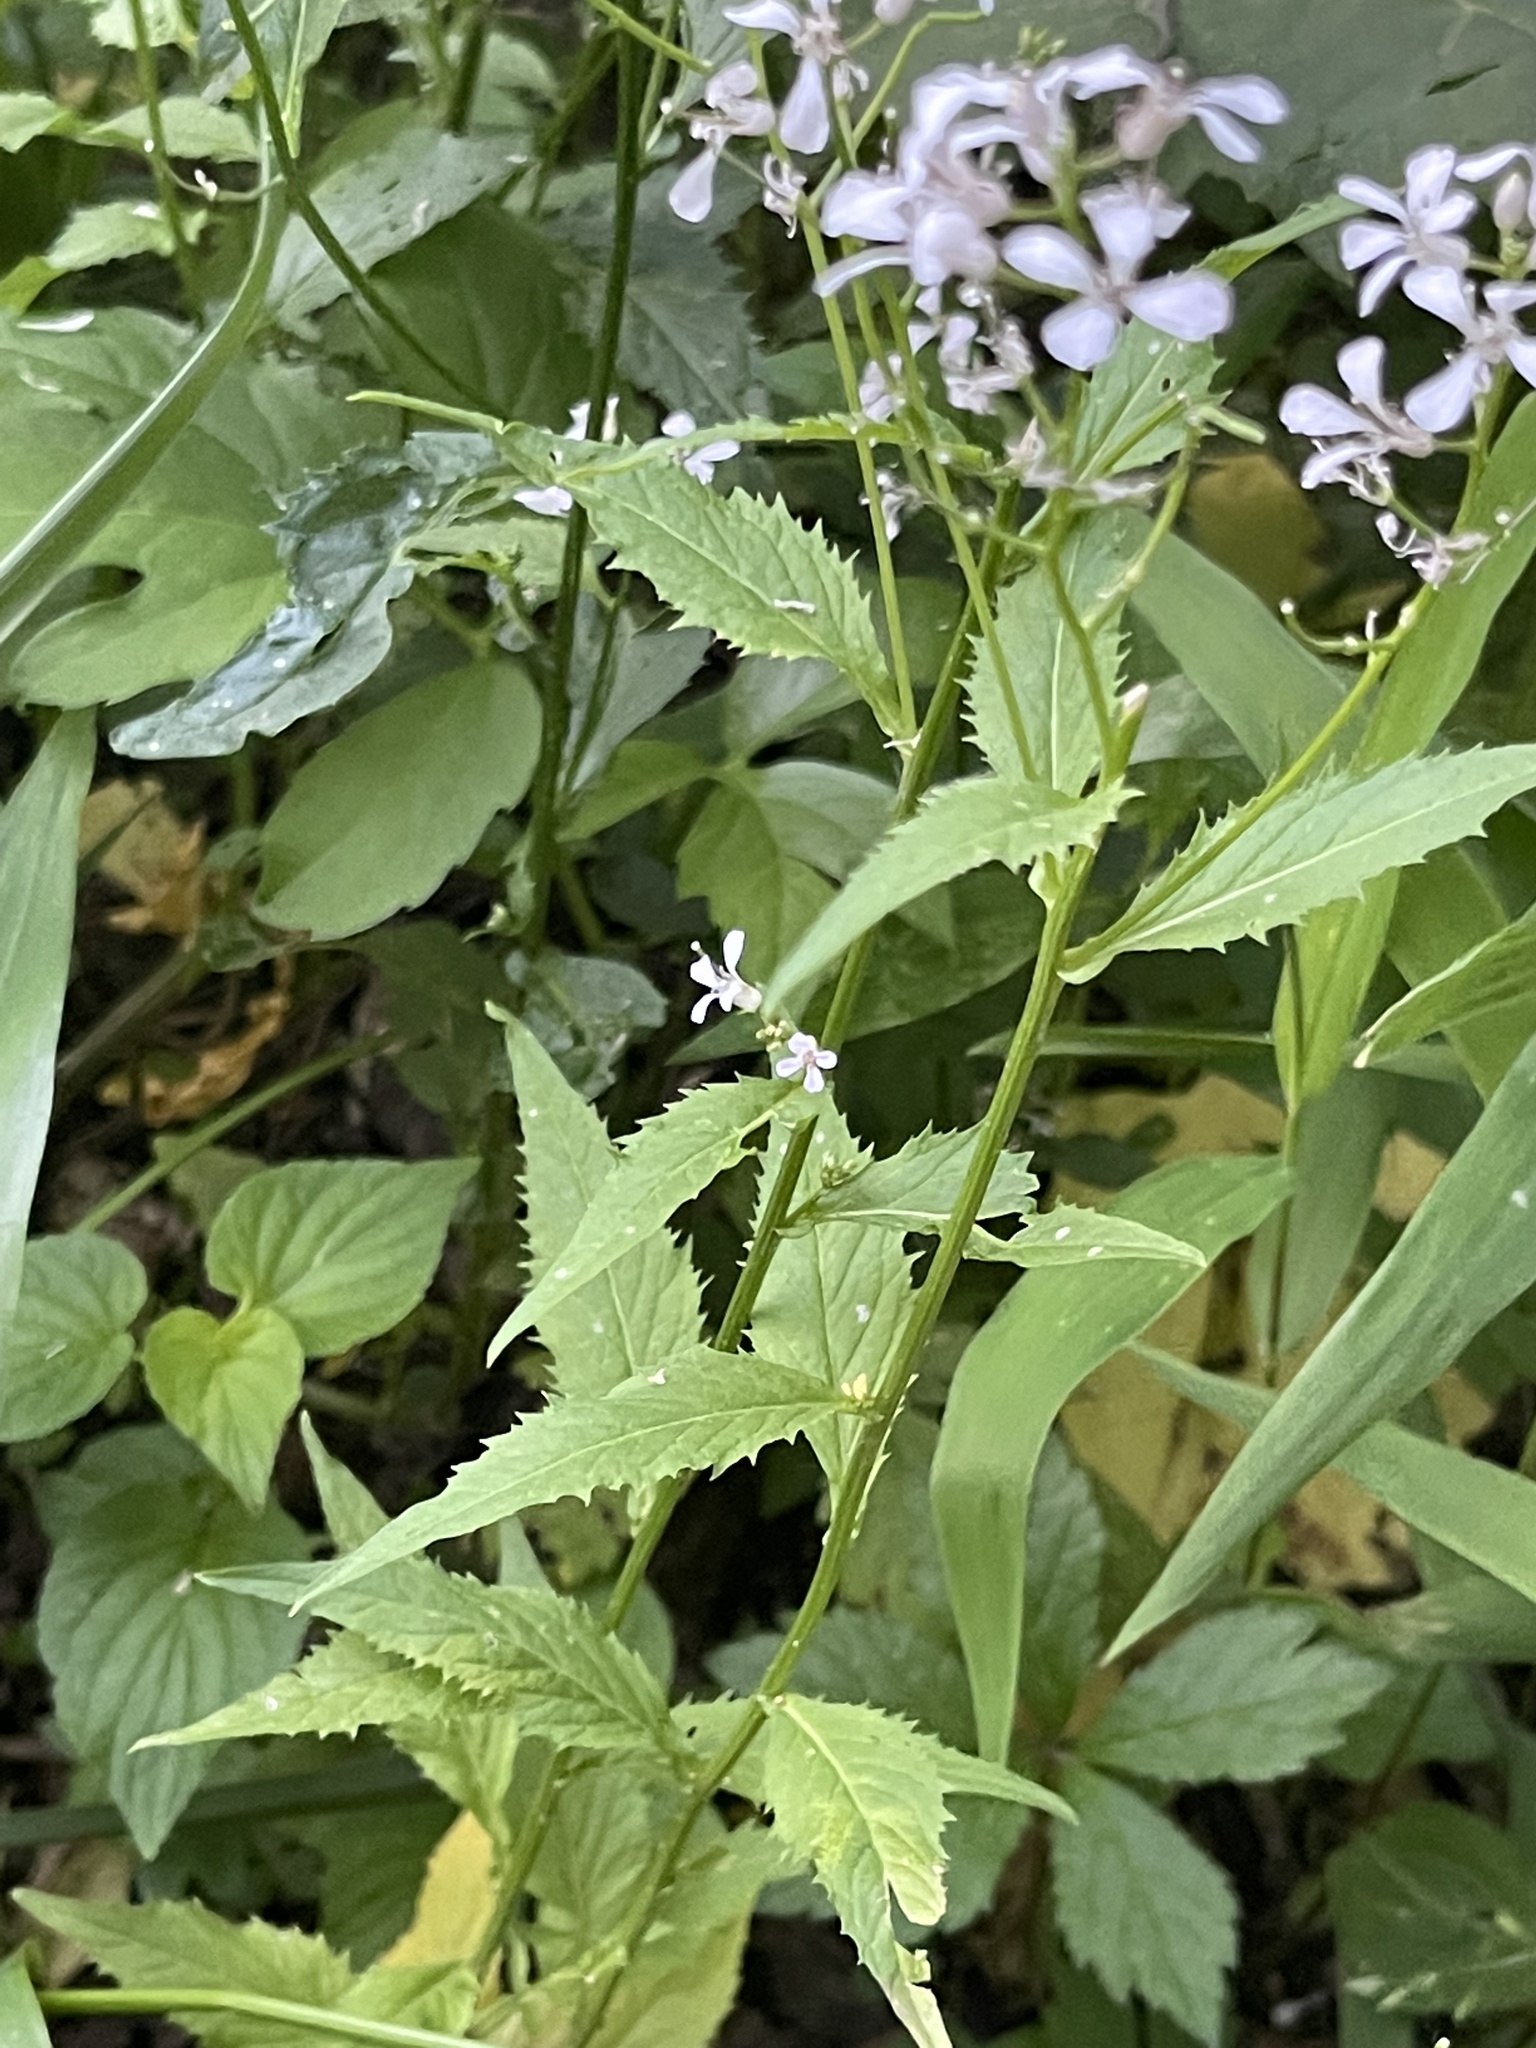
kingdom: Plantae
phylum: Tracheophyta
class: Magnoliopsida
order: Brassicales
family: Brassicaceae
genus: Iodanthus
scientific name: Iodanthus pinnatifidus
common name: Violet rocket
